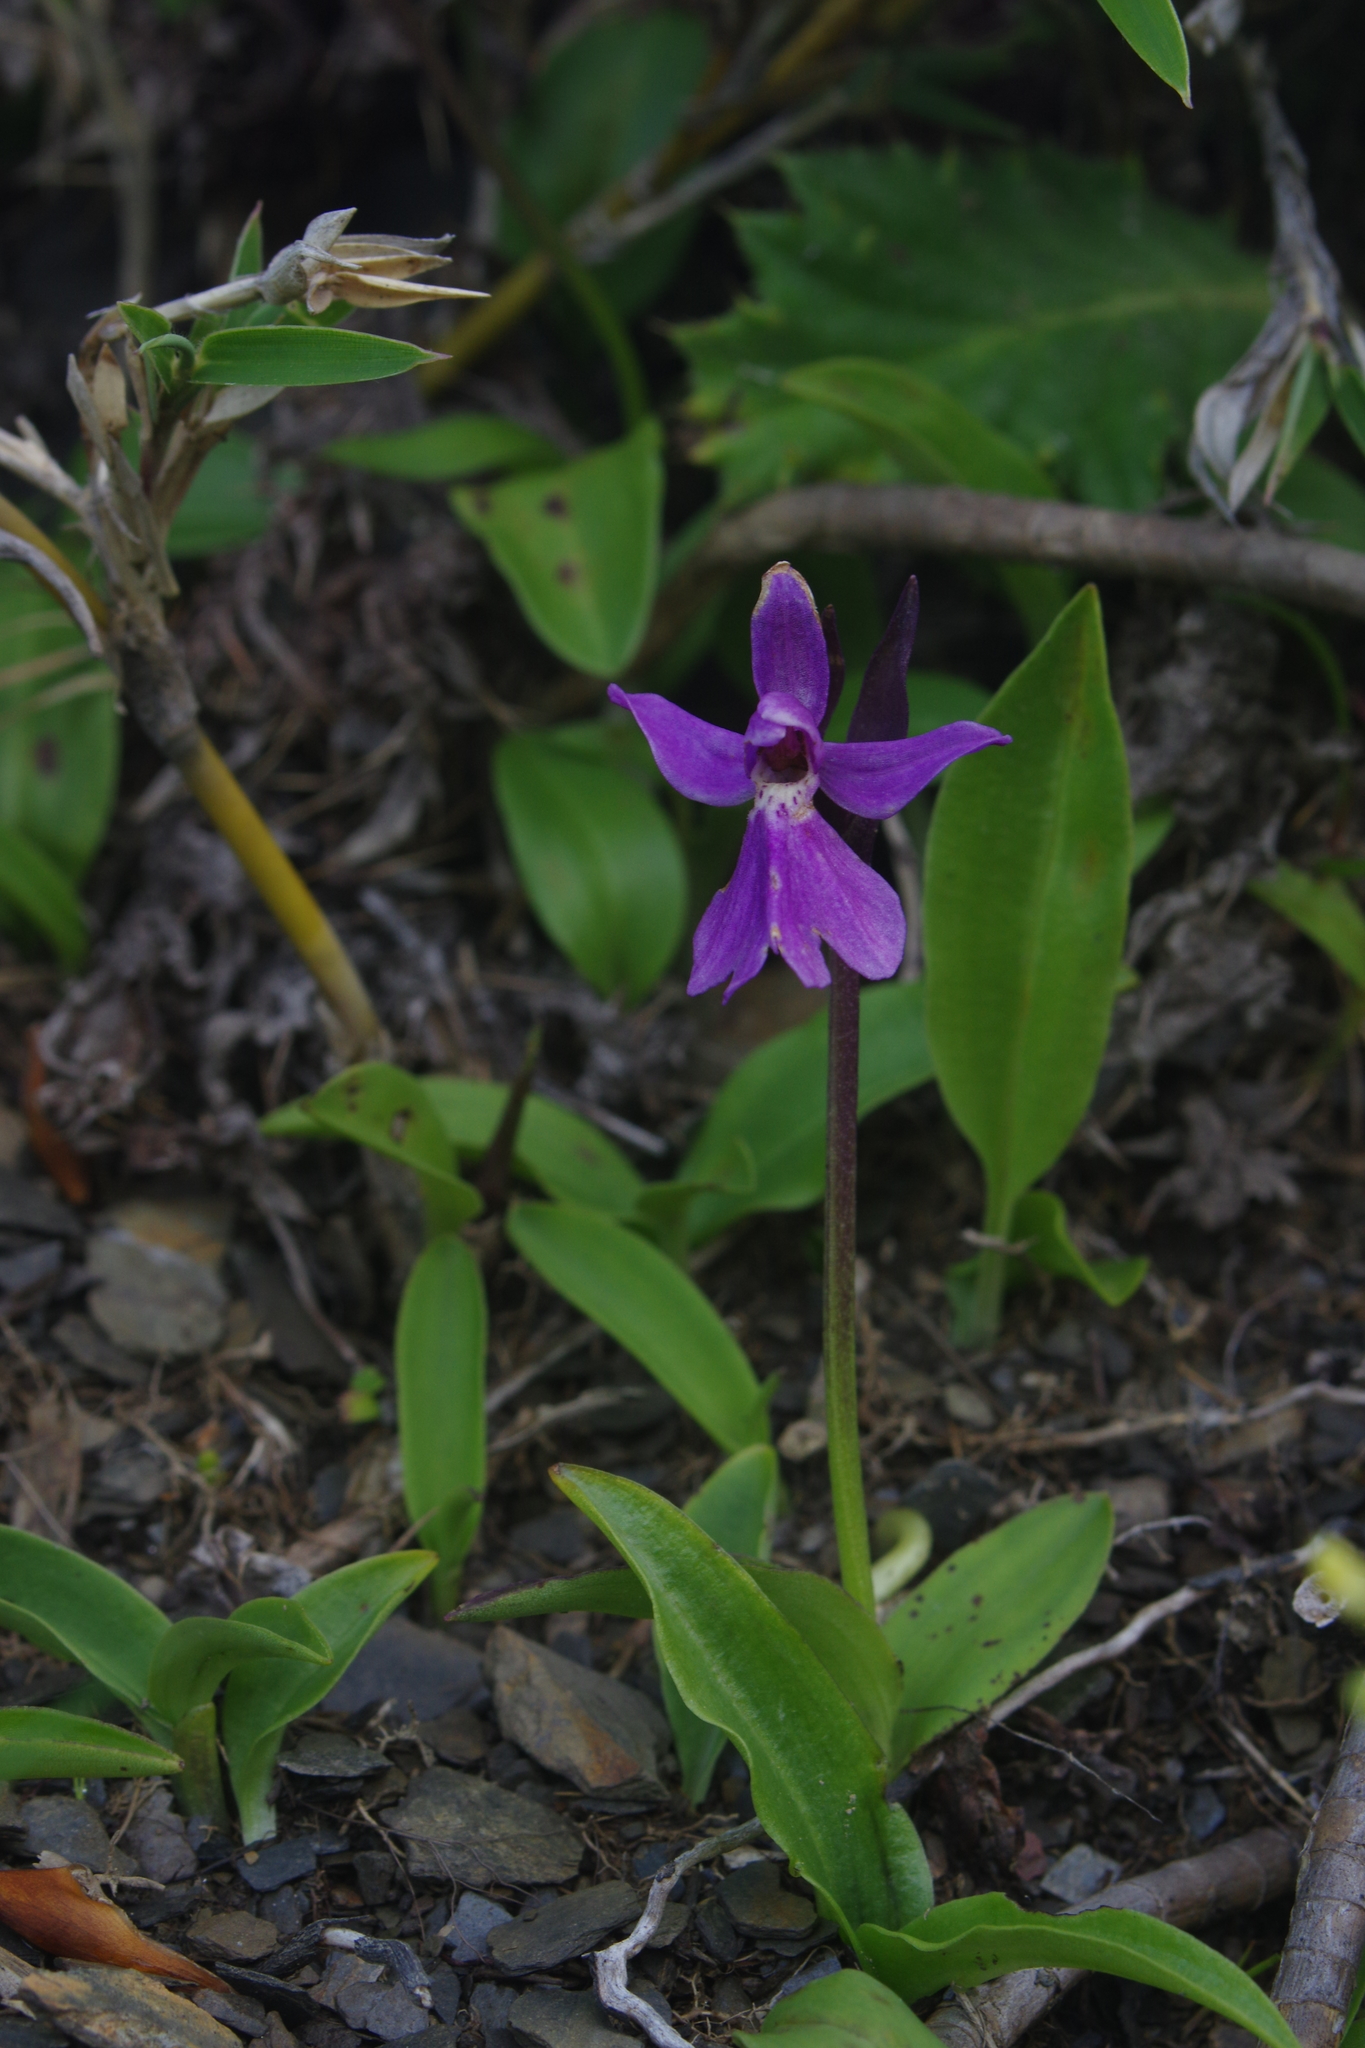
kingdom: Plantae
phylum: Tracheophyta
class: Liliopsida
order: Asparagales
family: Orchidaceae
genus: Hemipilia
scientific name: Hemipilia kiraishiensis
